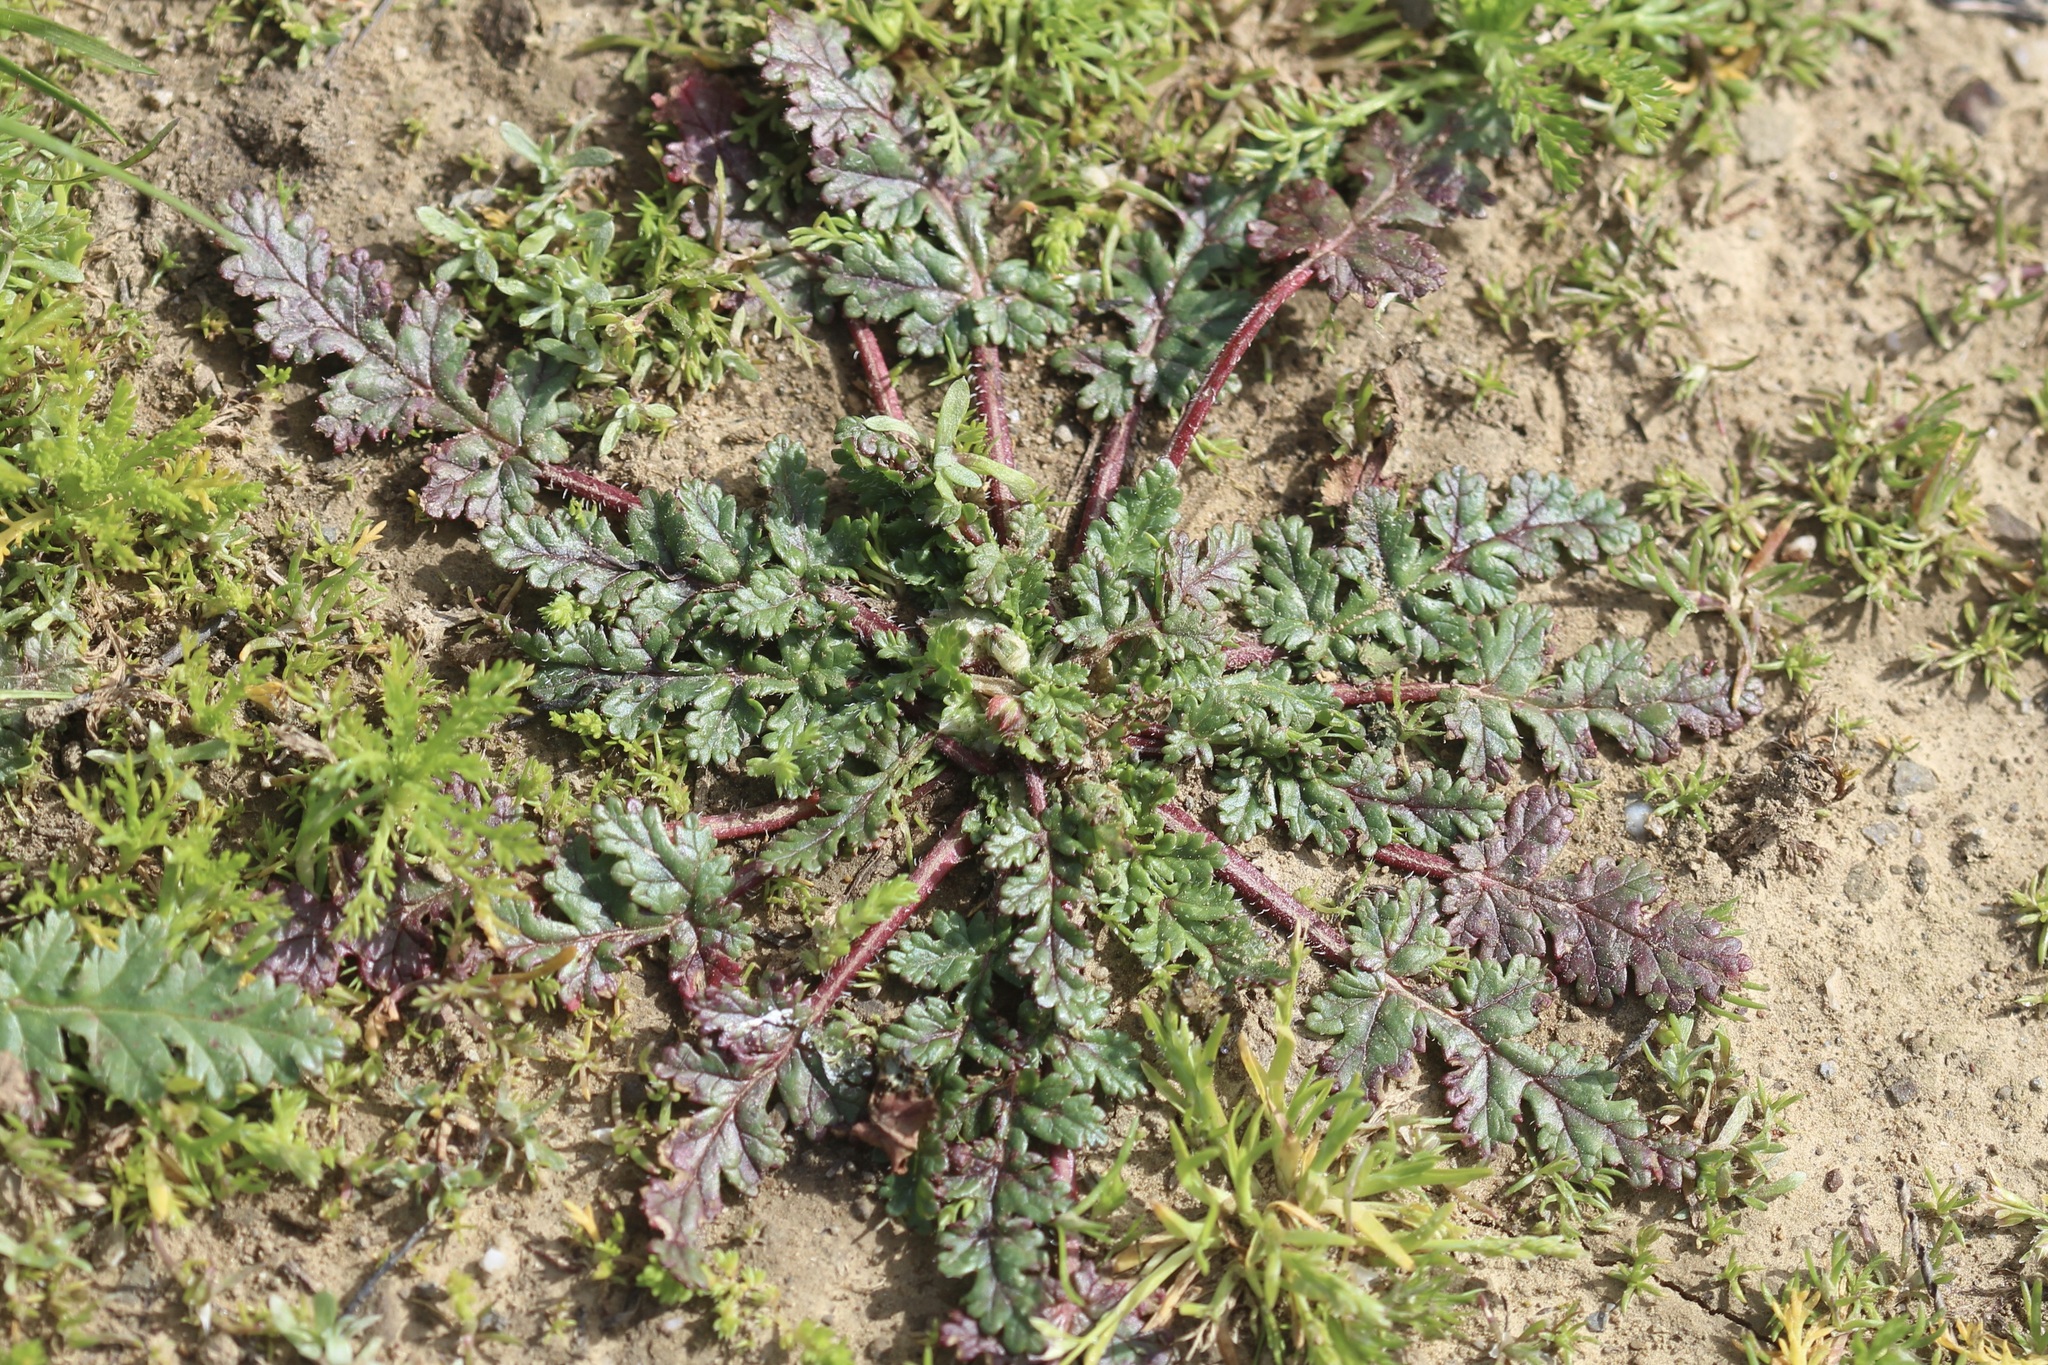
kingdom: Plantae
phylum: Tracheophyta
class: Magnoliopsida
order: Geraniales
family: Geraniaceae
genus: Erodium
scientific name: Erodium brachycarpum
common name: Hairy-pitted stork's-bill
